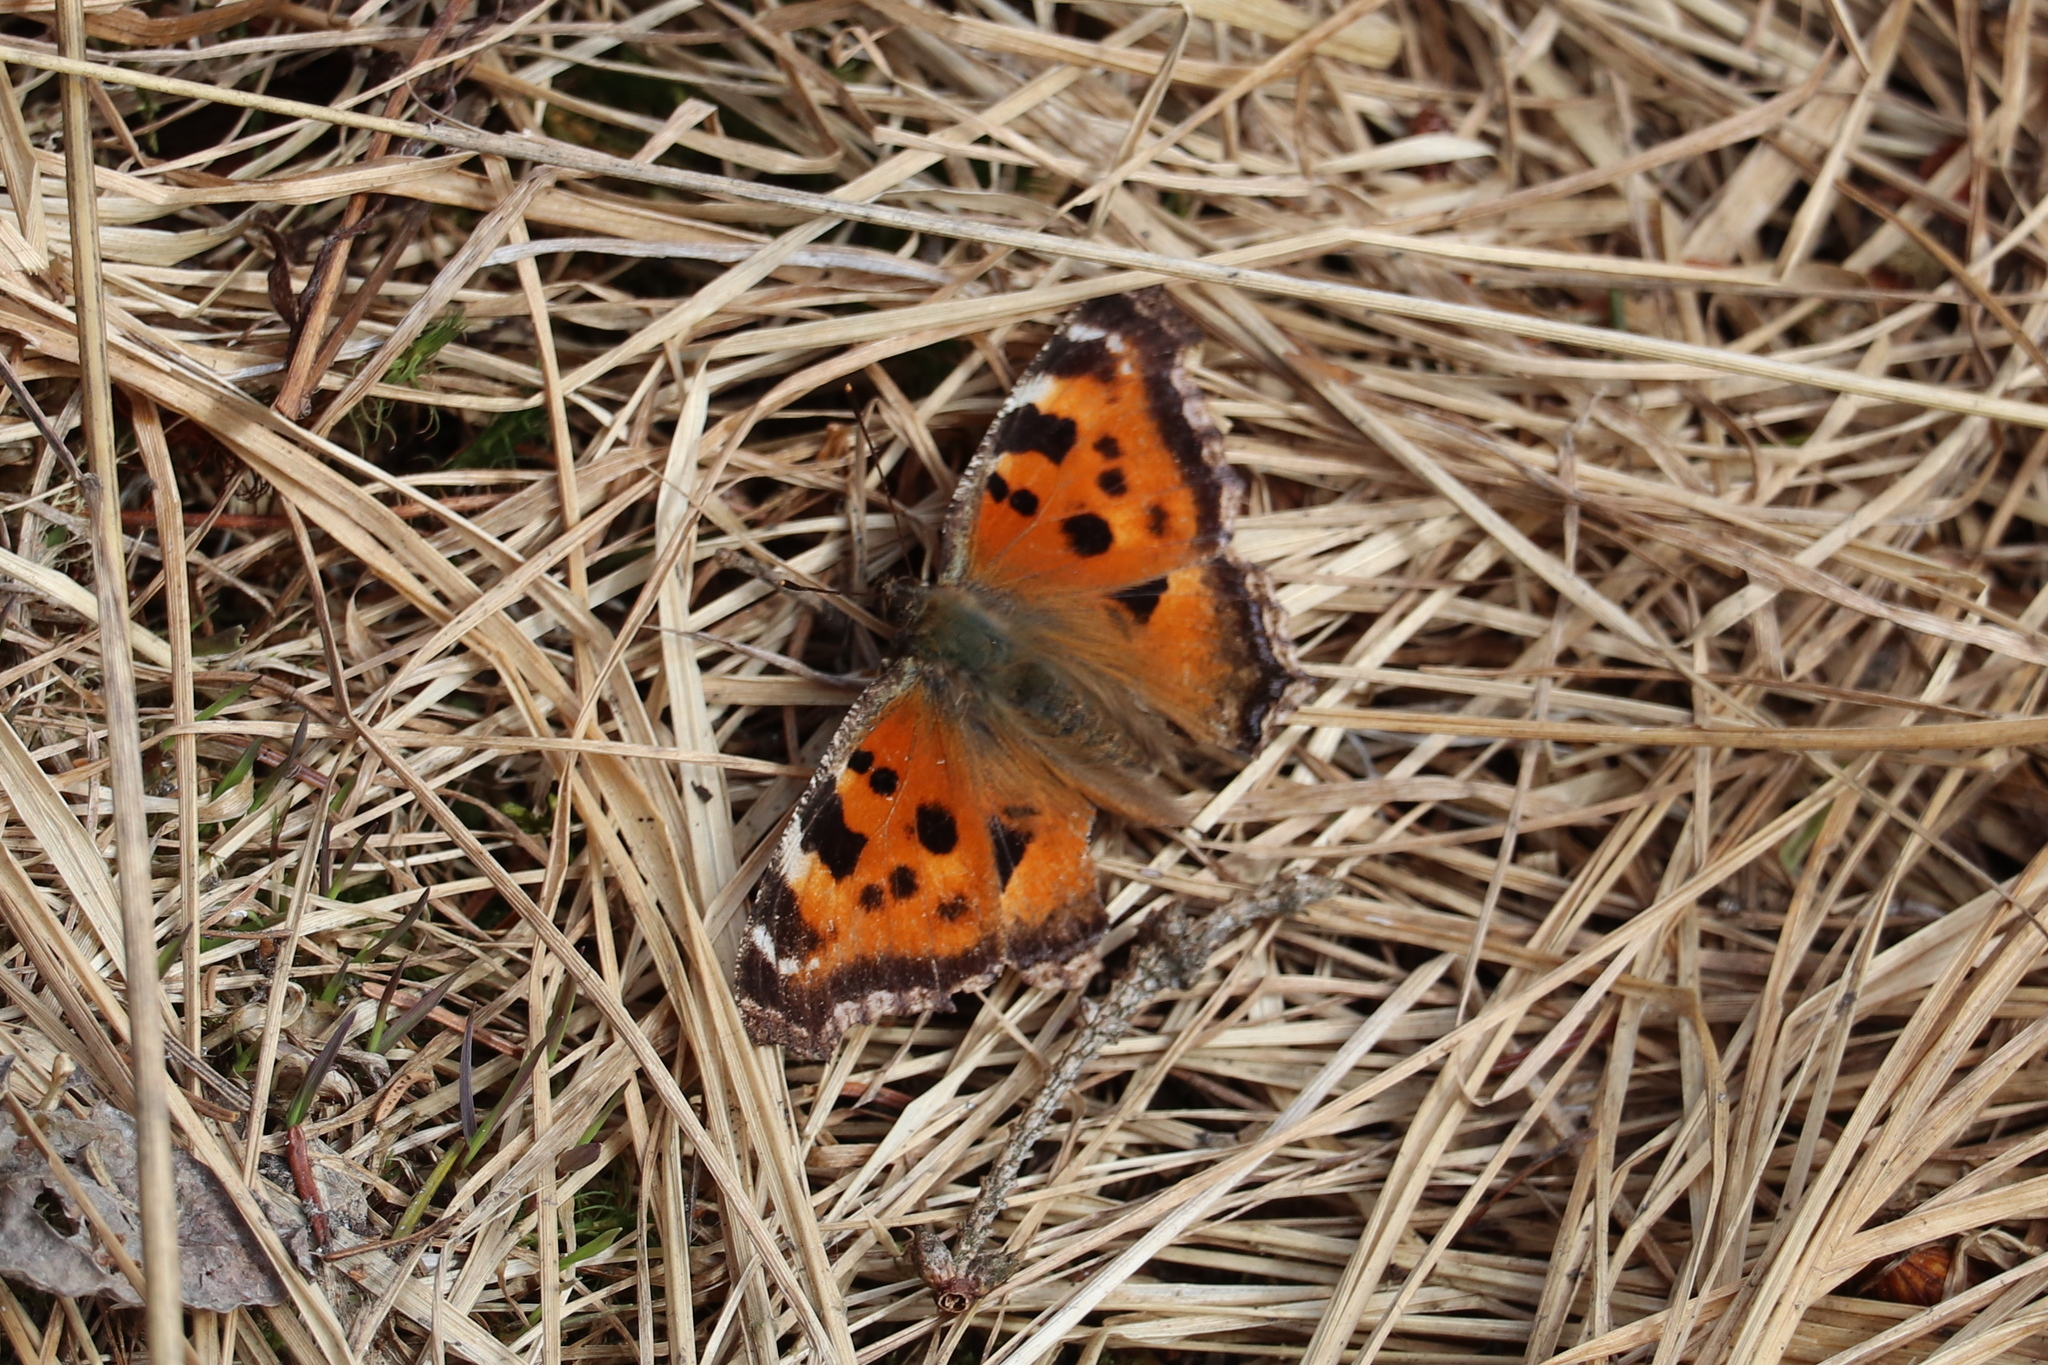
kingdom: Animalia
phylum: Arthropoda
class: Insecta
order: Lepidoptera
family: Nymphalidae
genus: Nymphalis
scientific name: Nymphalis xanthomelas
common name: Scarce tortoiseshell
